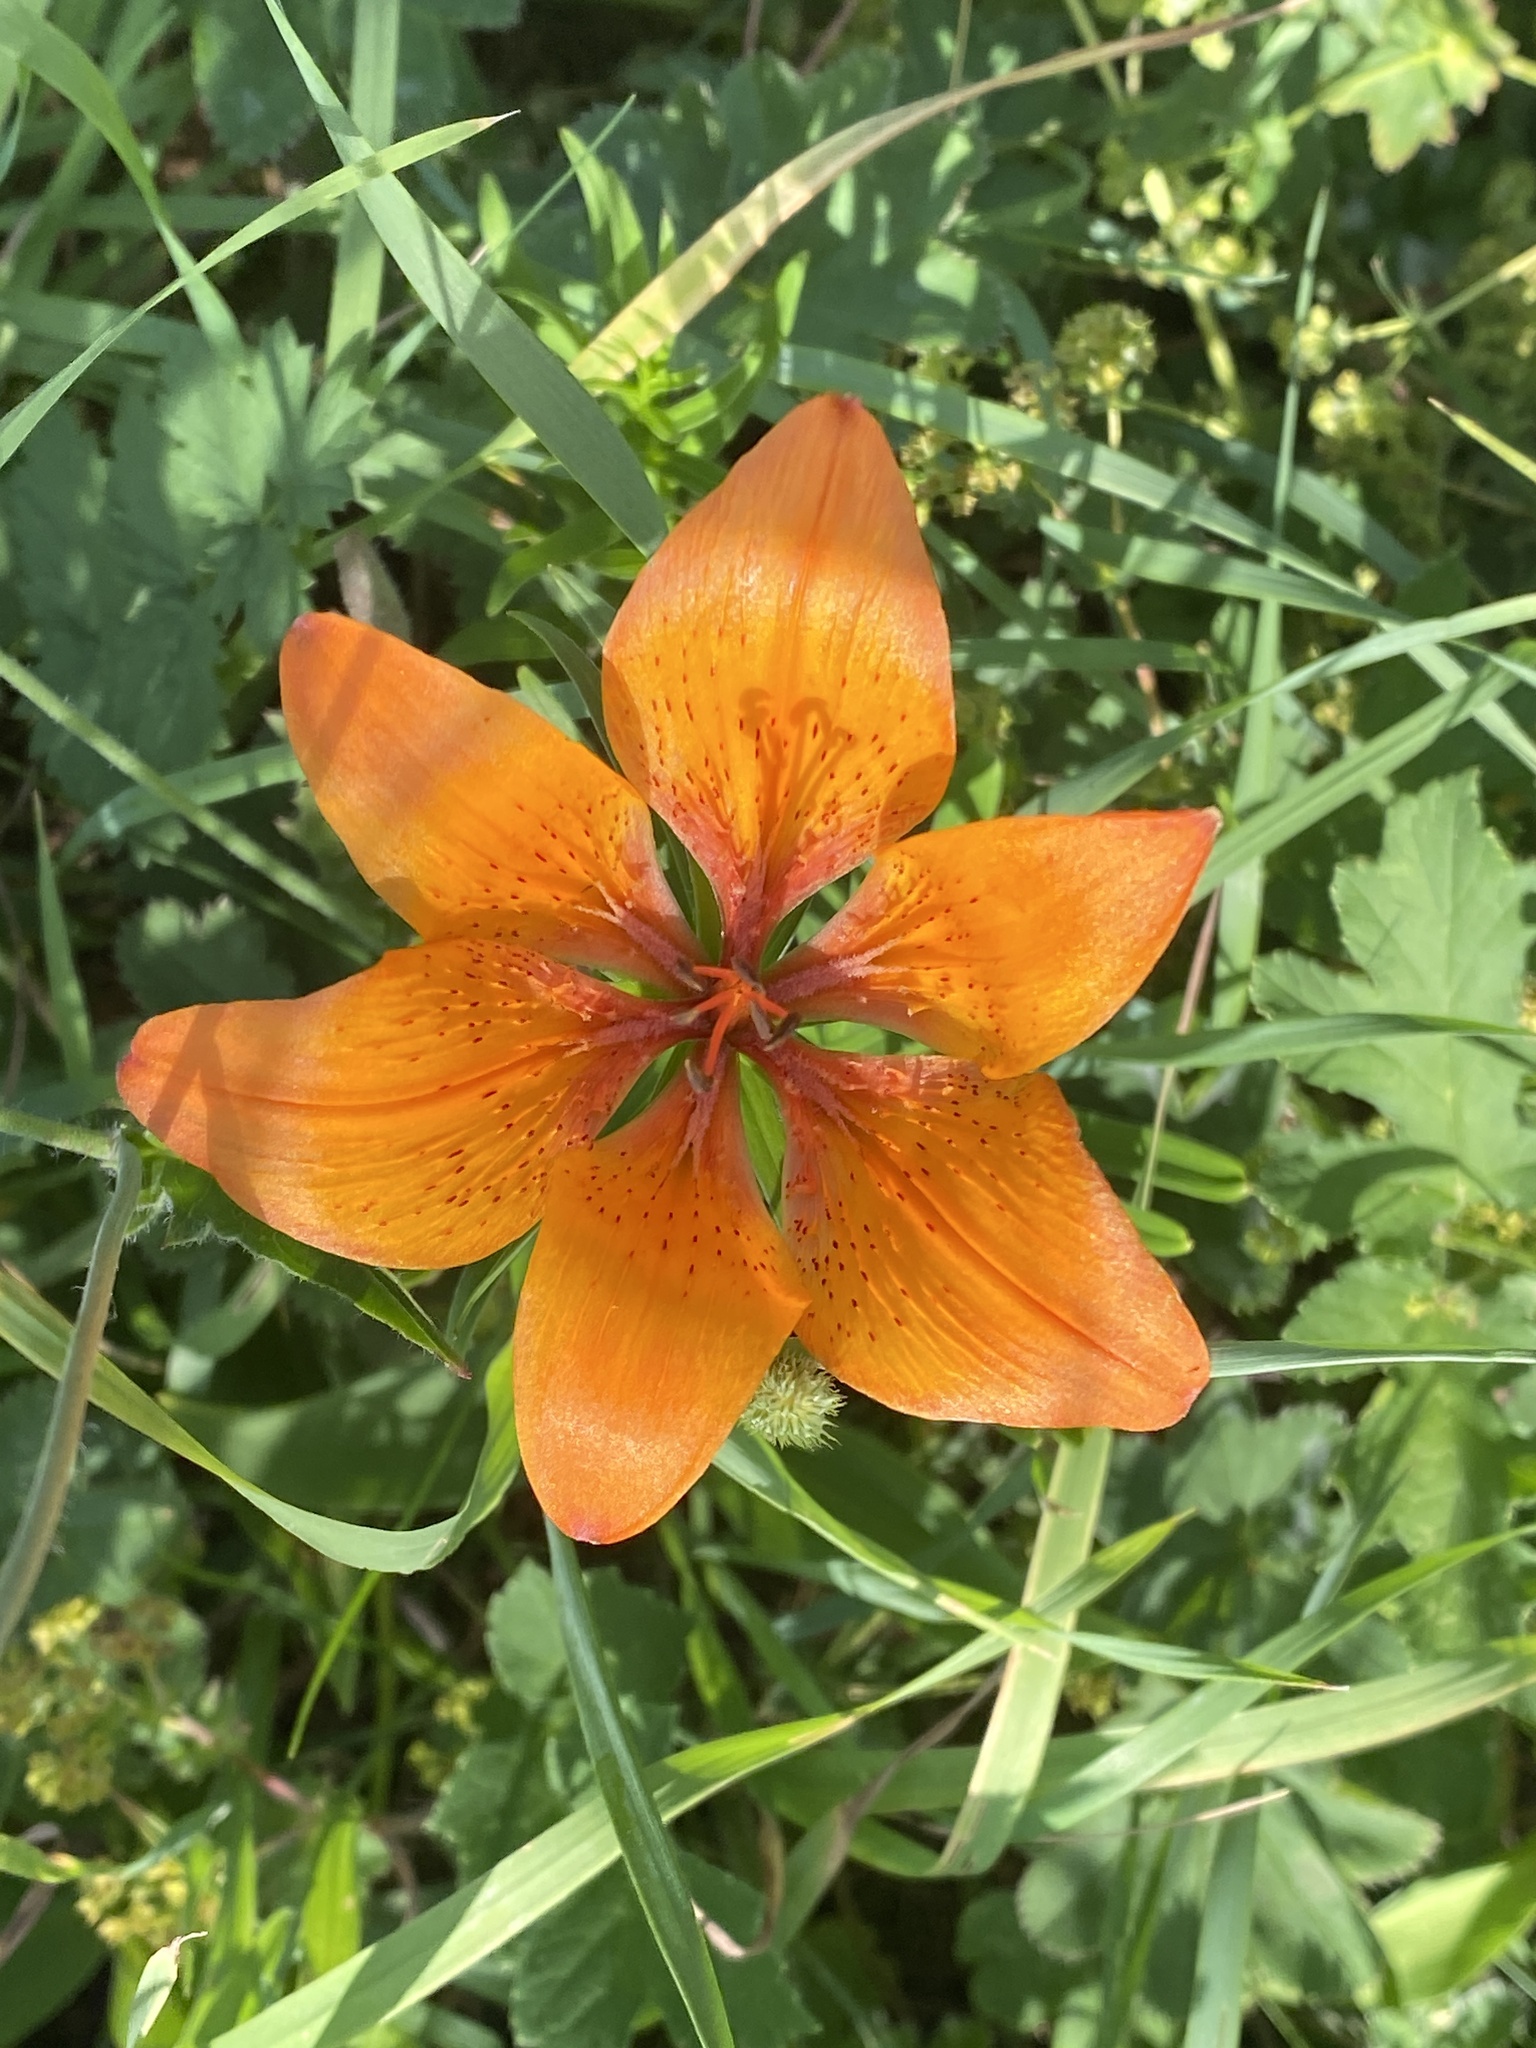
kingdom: Plantae
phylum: Tracheophyta
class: Liliopsida
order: Liliales
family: Liliaceae
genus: Lilium
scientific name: Lilium bulbiferum
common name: Orange lily
